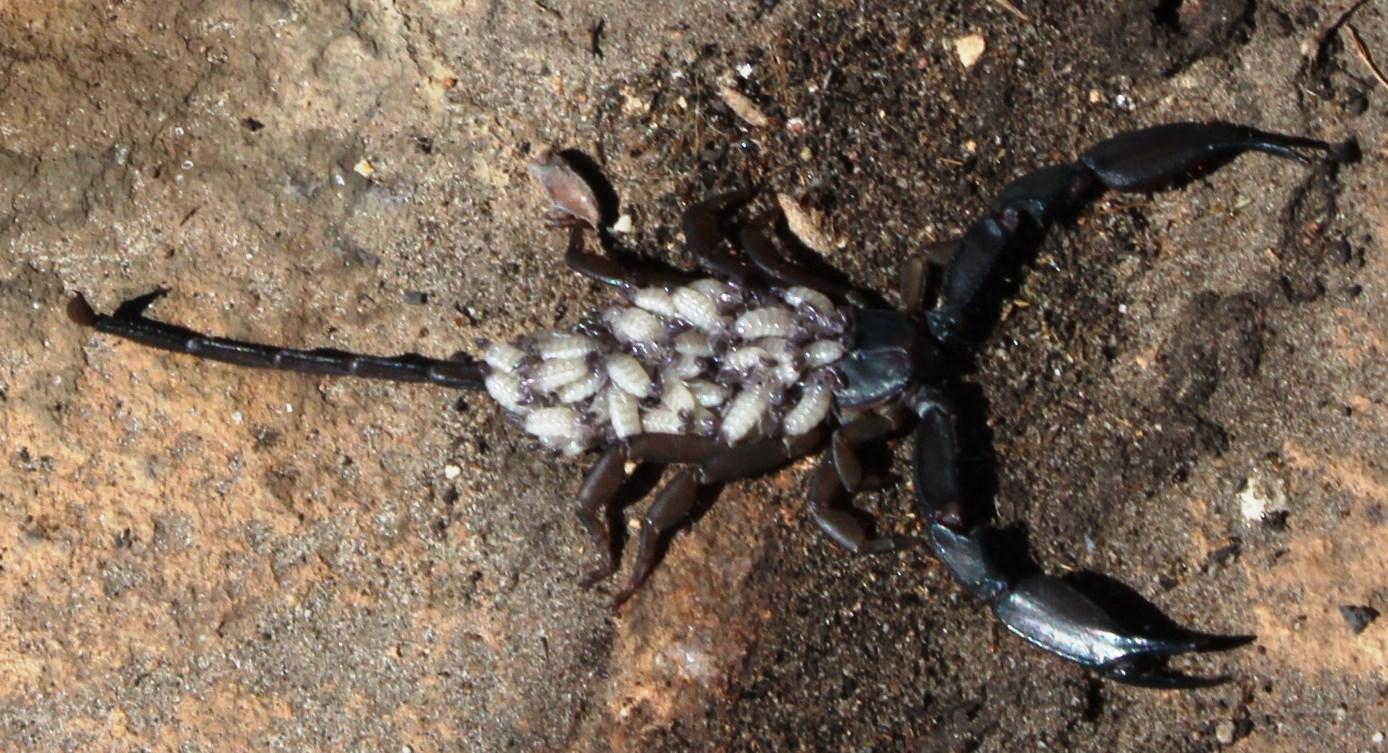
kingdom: Animalia
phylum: Arthropoda
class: Arachnida
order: Scorpiones
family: Hormuridae
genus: Hadogenes
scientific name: Hadogenes minor
